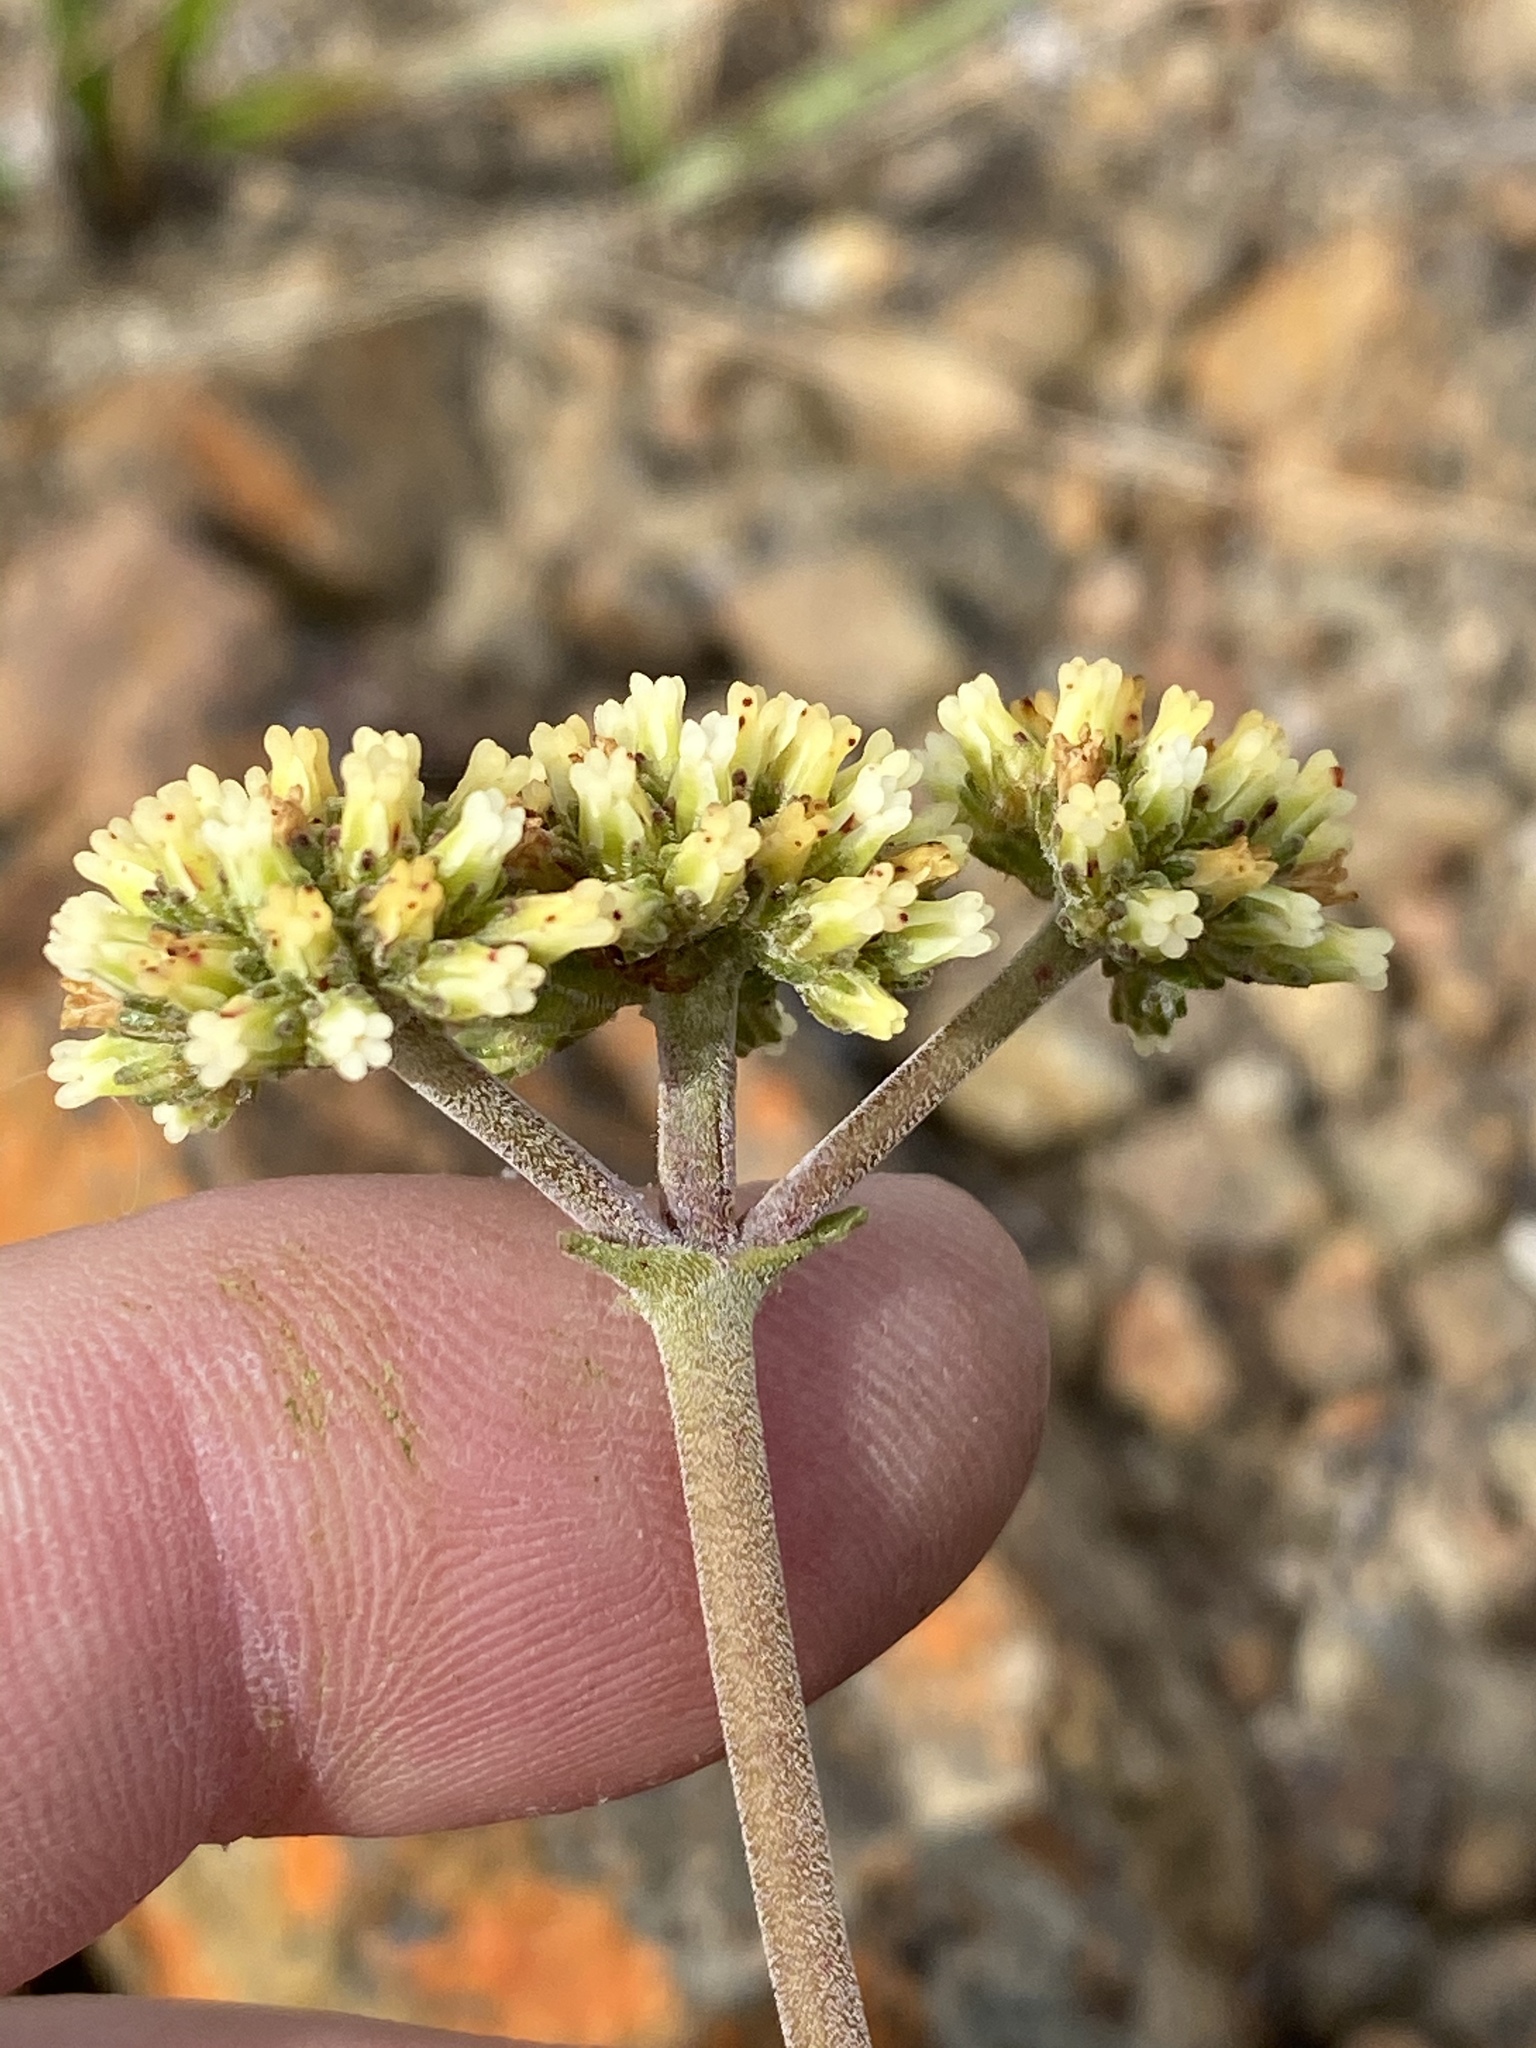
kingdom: Plantae
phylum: Tracheophyta
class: Magnoliopsida
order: Saxifragales
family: Crassulaceae
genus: Crassula
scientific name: Crassula nudicaulis
